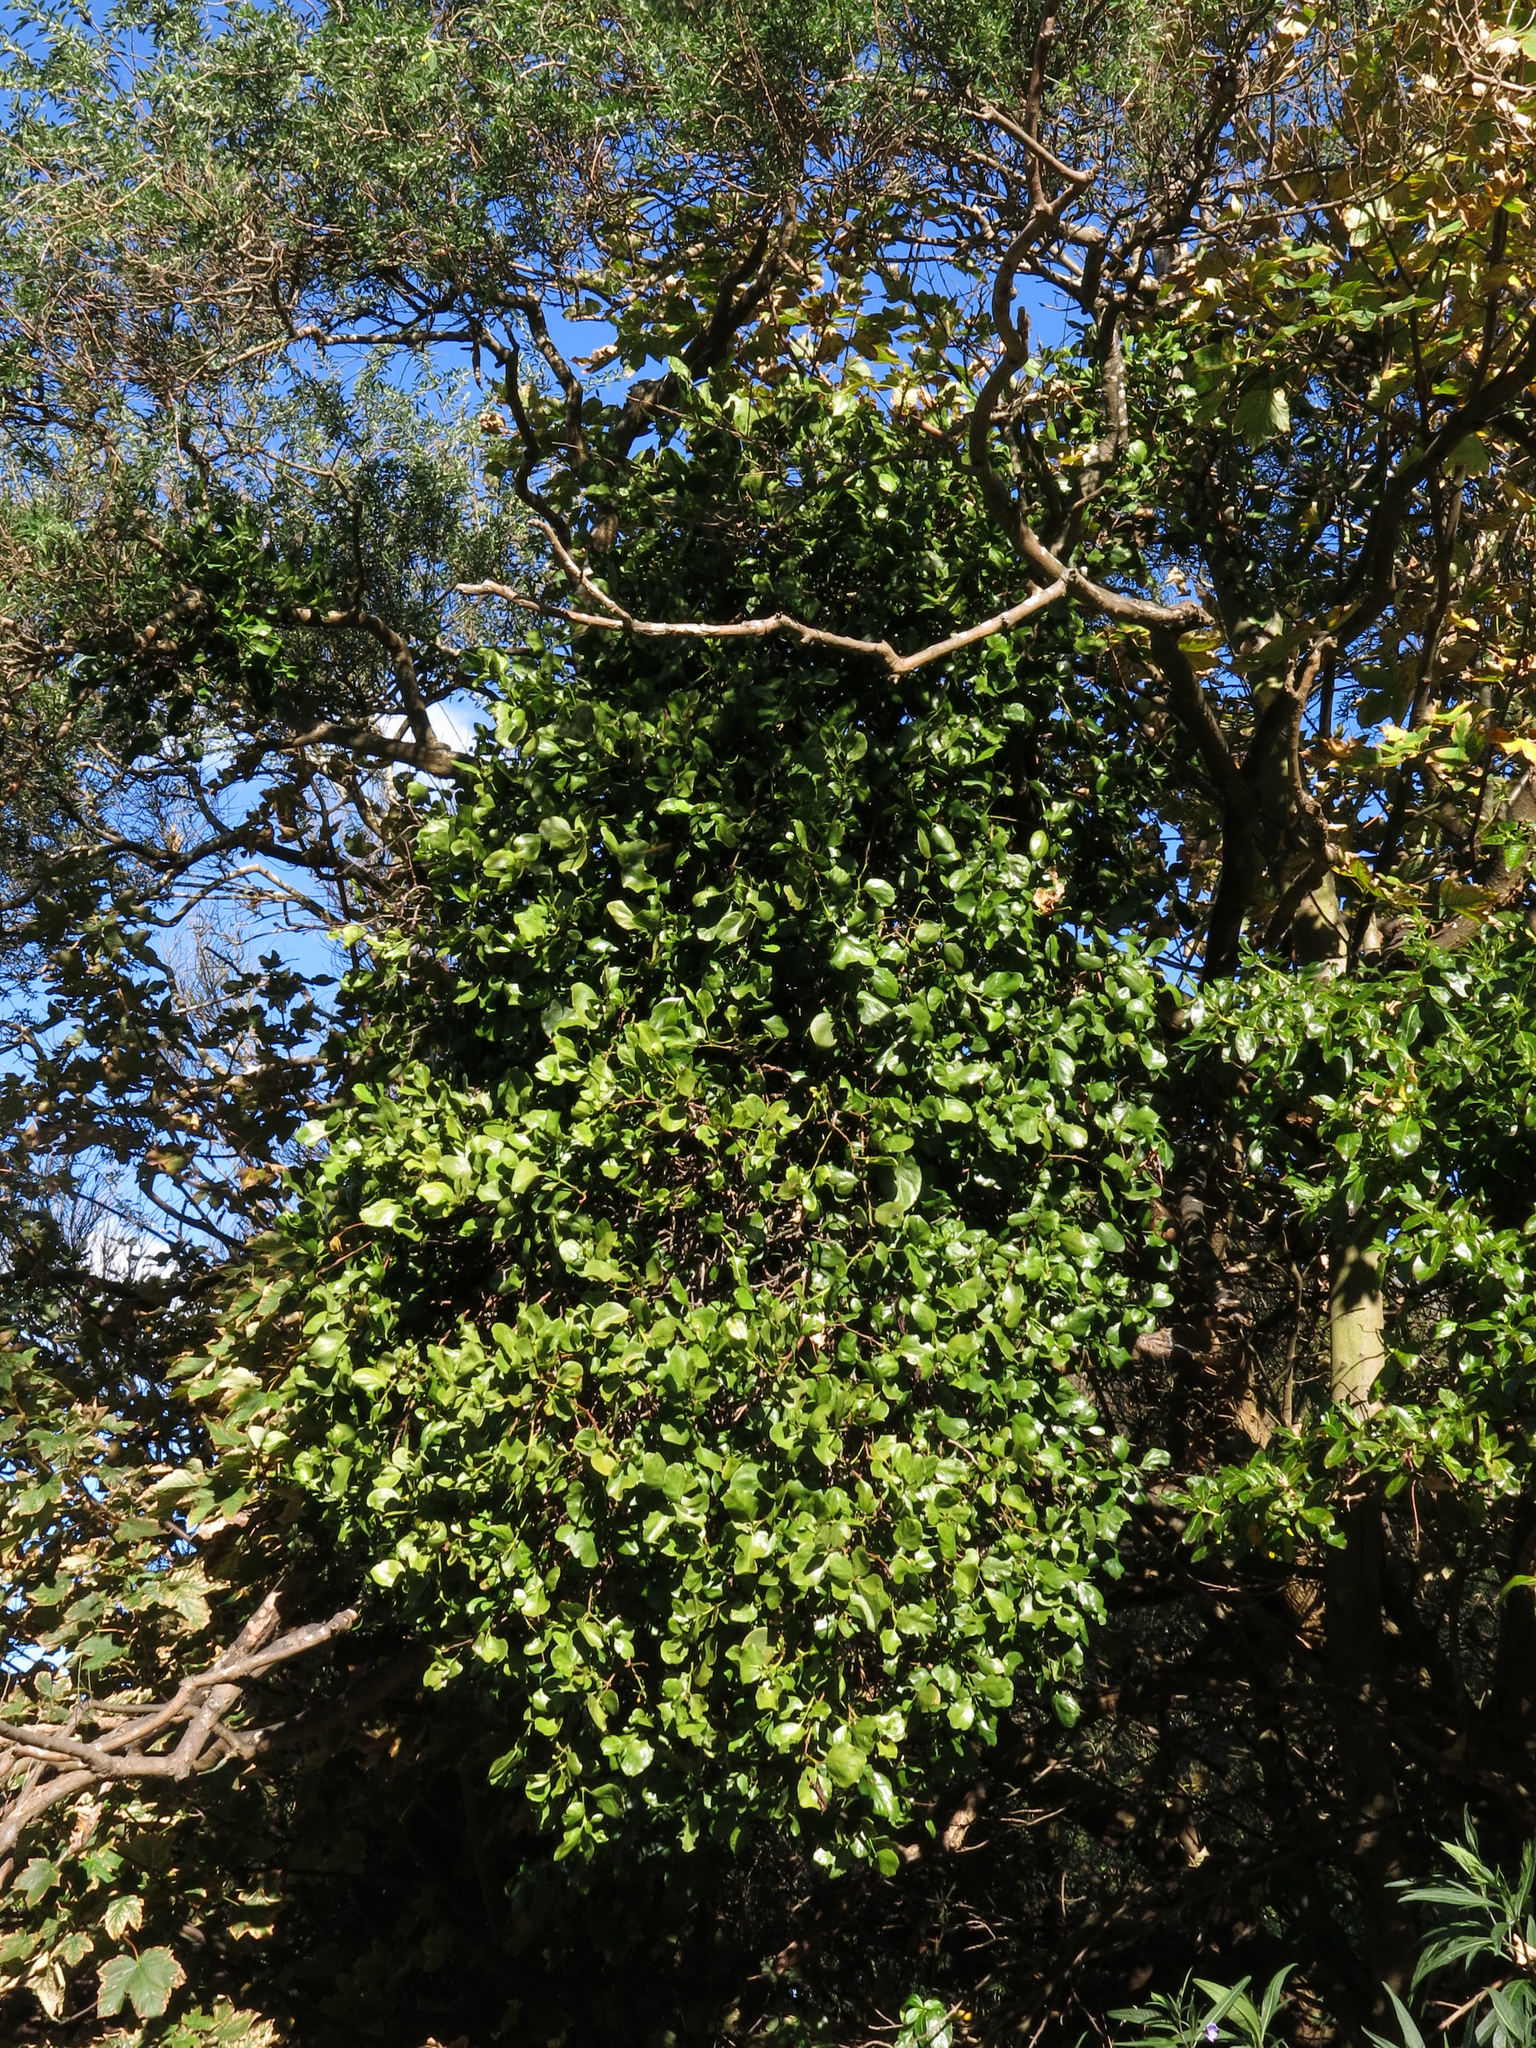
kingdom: Plantae
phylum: Tracheophyta
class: Magnoliopsida
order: Santalales
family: Loranthaceae
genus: Ileostylus
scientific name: Ileostylus micranthus
